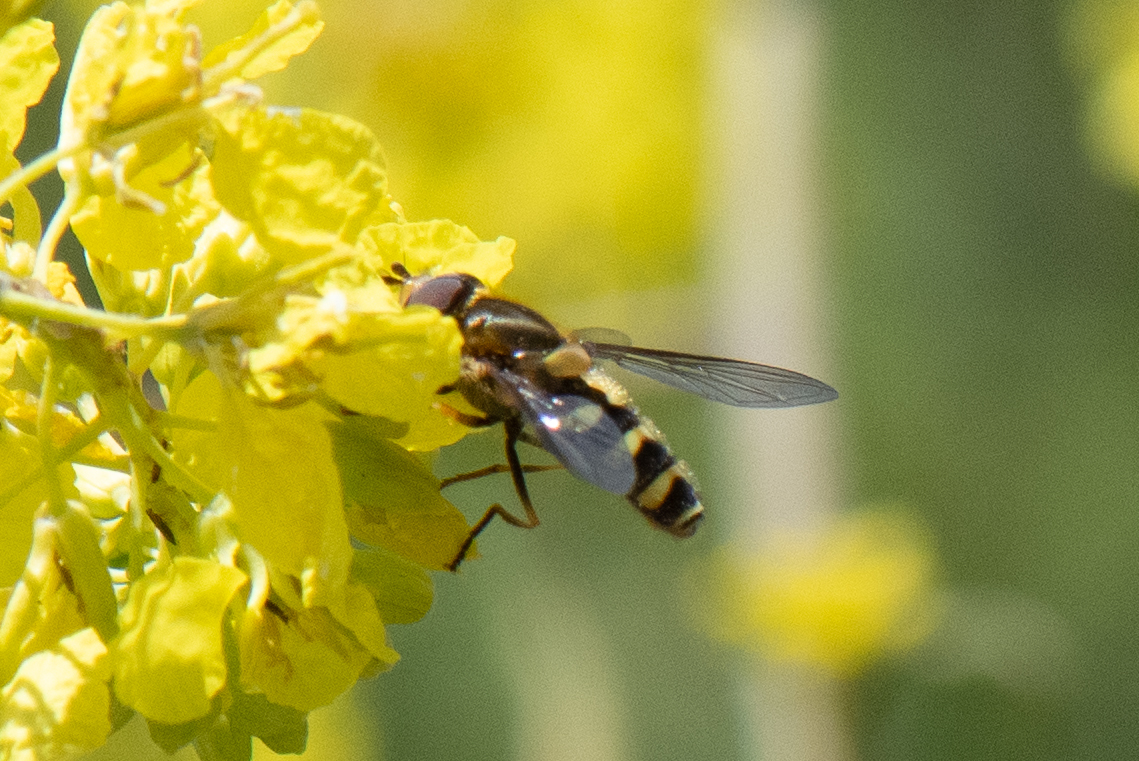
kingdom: Animalia
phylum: Arthropoda
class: Insecta
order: Diptera
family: Syrphidae
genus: Syrphus
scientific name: Syrphus opinator
